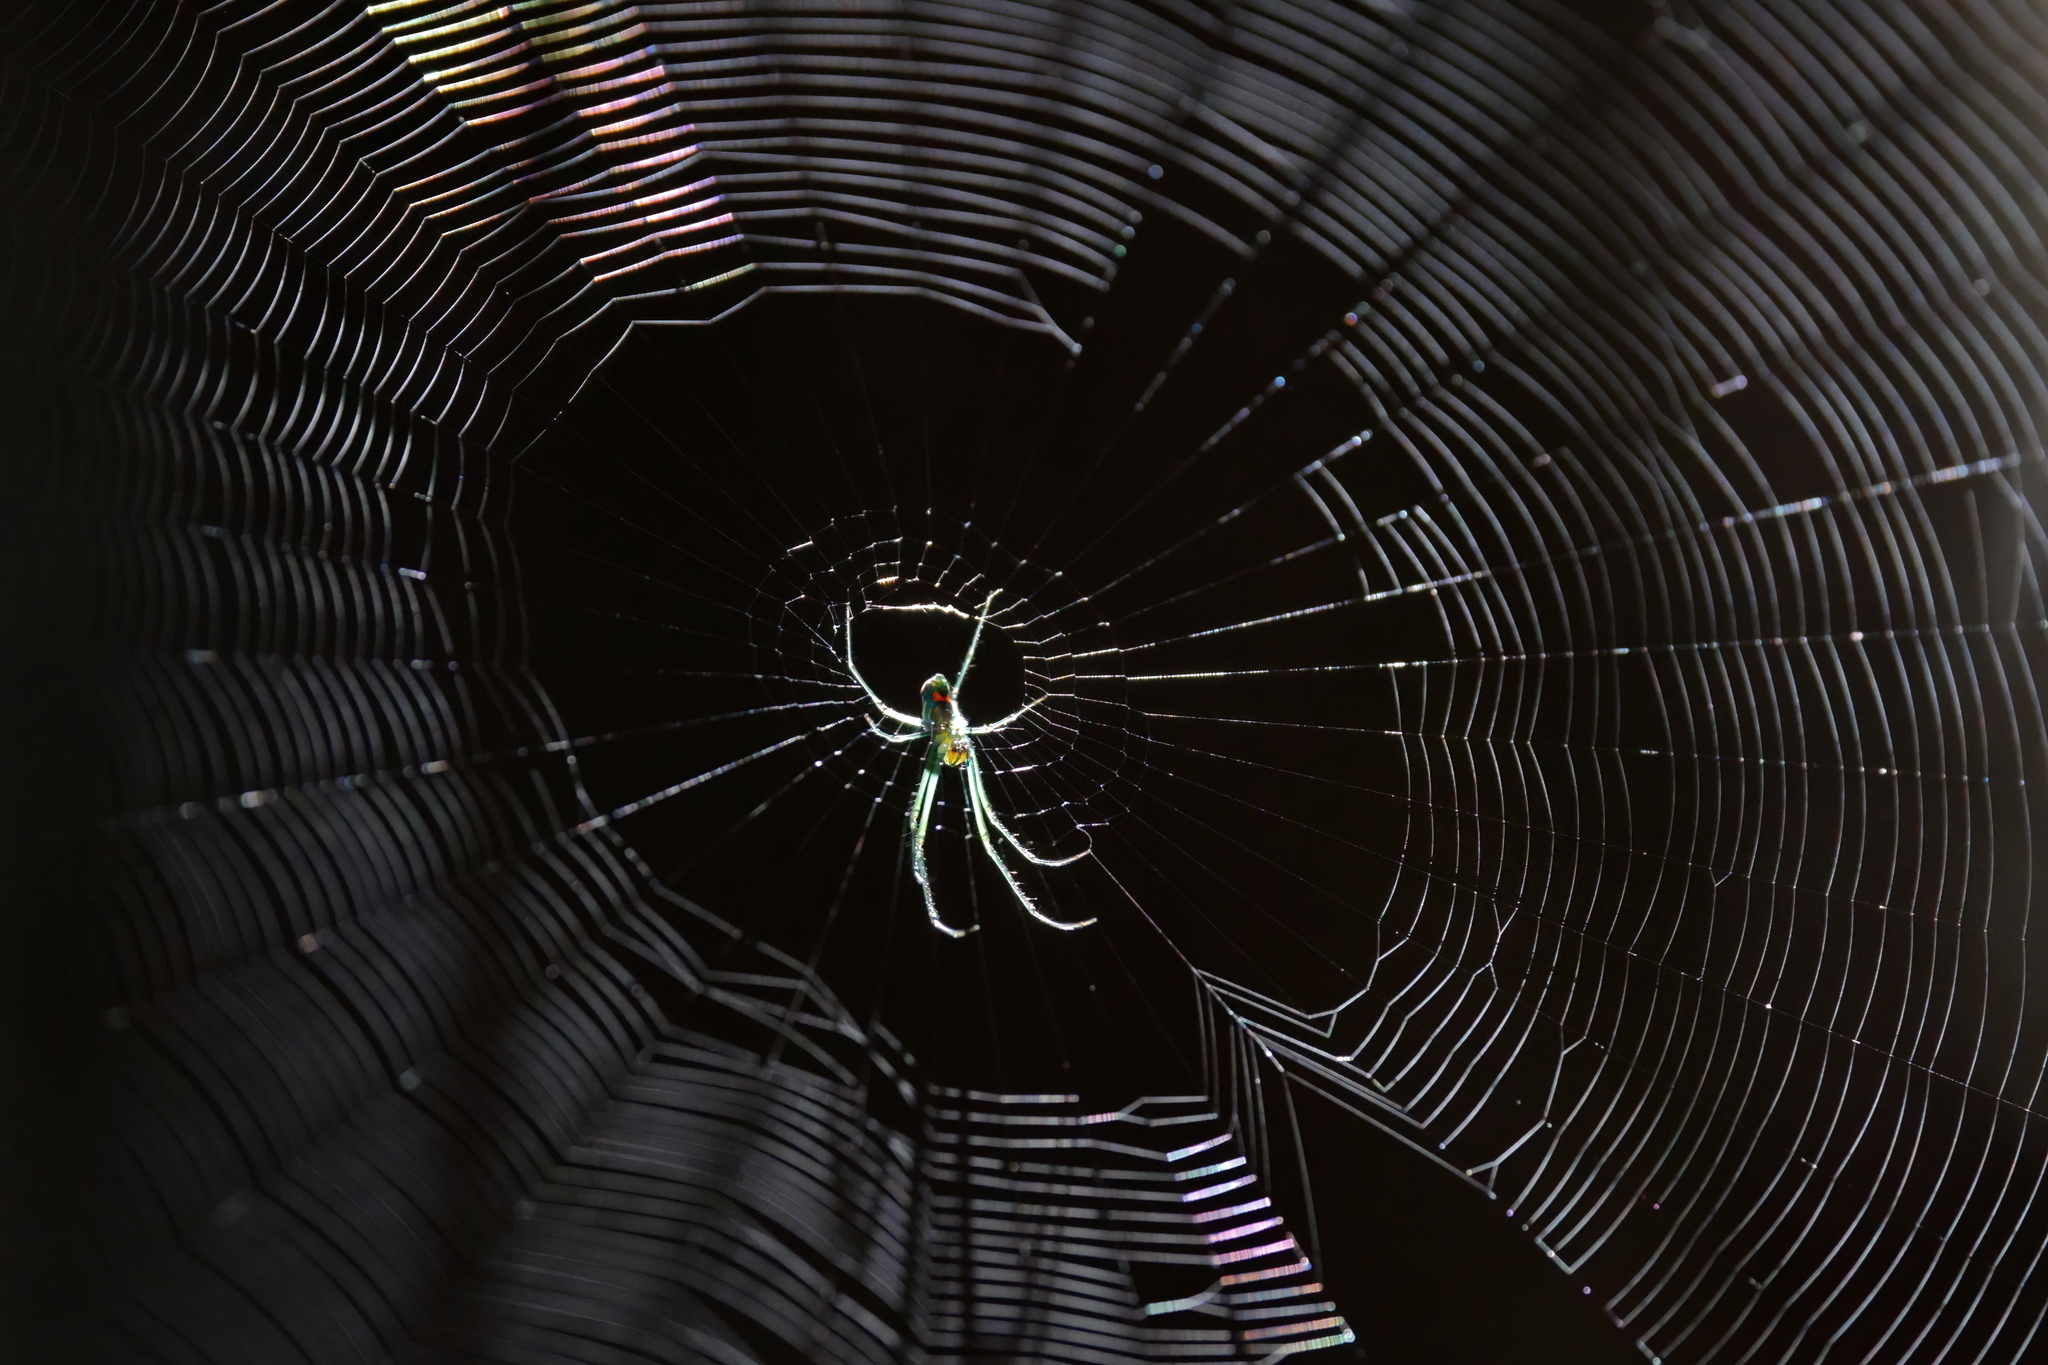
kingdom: Animalia
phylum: Arthropoda
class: Arachnida
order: Araneae
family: Tetragnathidae
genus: Leucauge
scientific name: Leucauge argyrobapta
